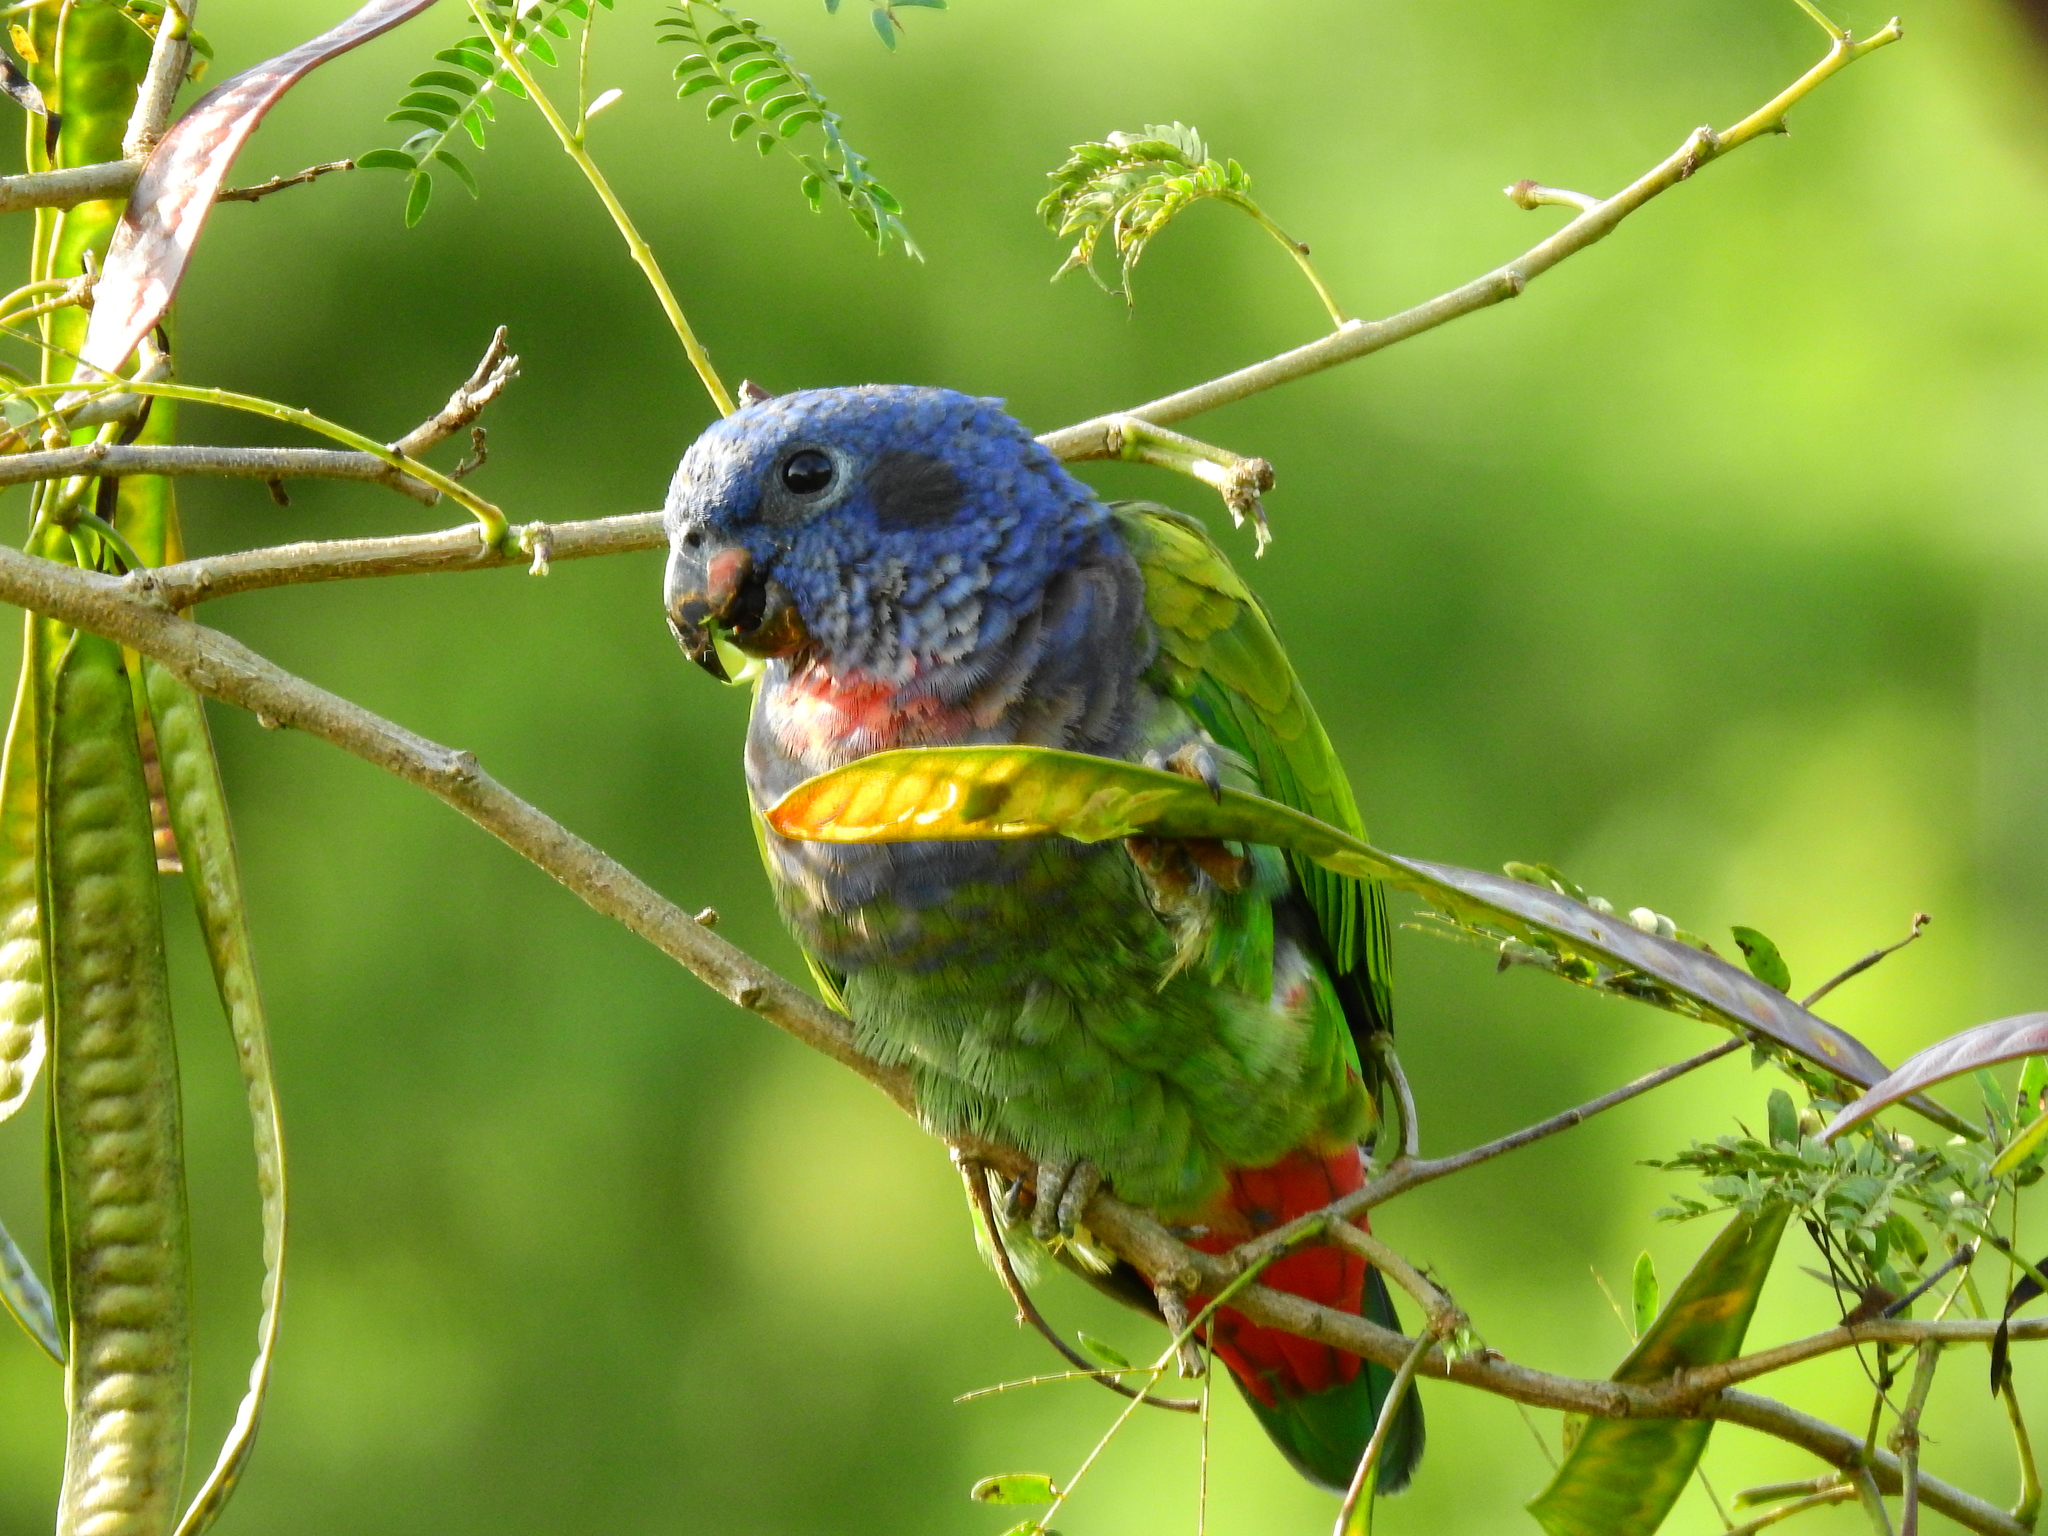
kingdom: Animalia
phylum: Chordata
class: Aves
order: Psittaciformes
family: Psittacidae
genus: Pionus
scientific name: Pionus menstruus
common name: Blue-headed parrot
